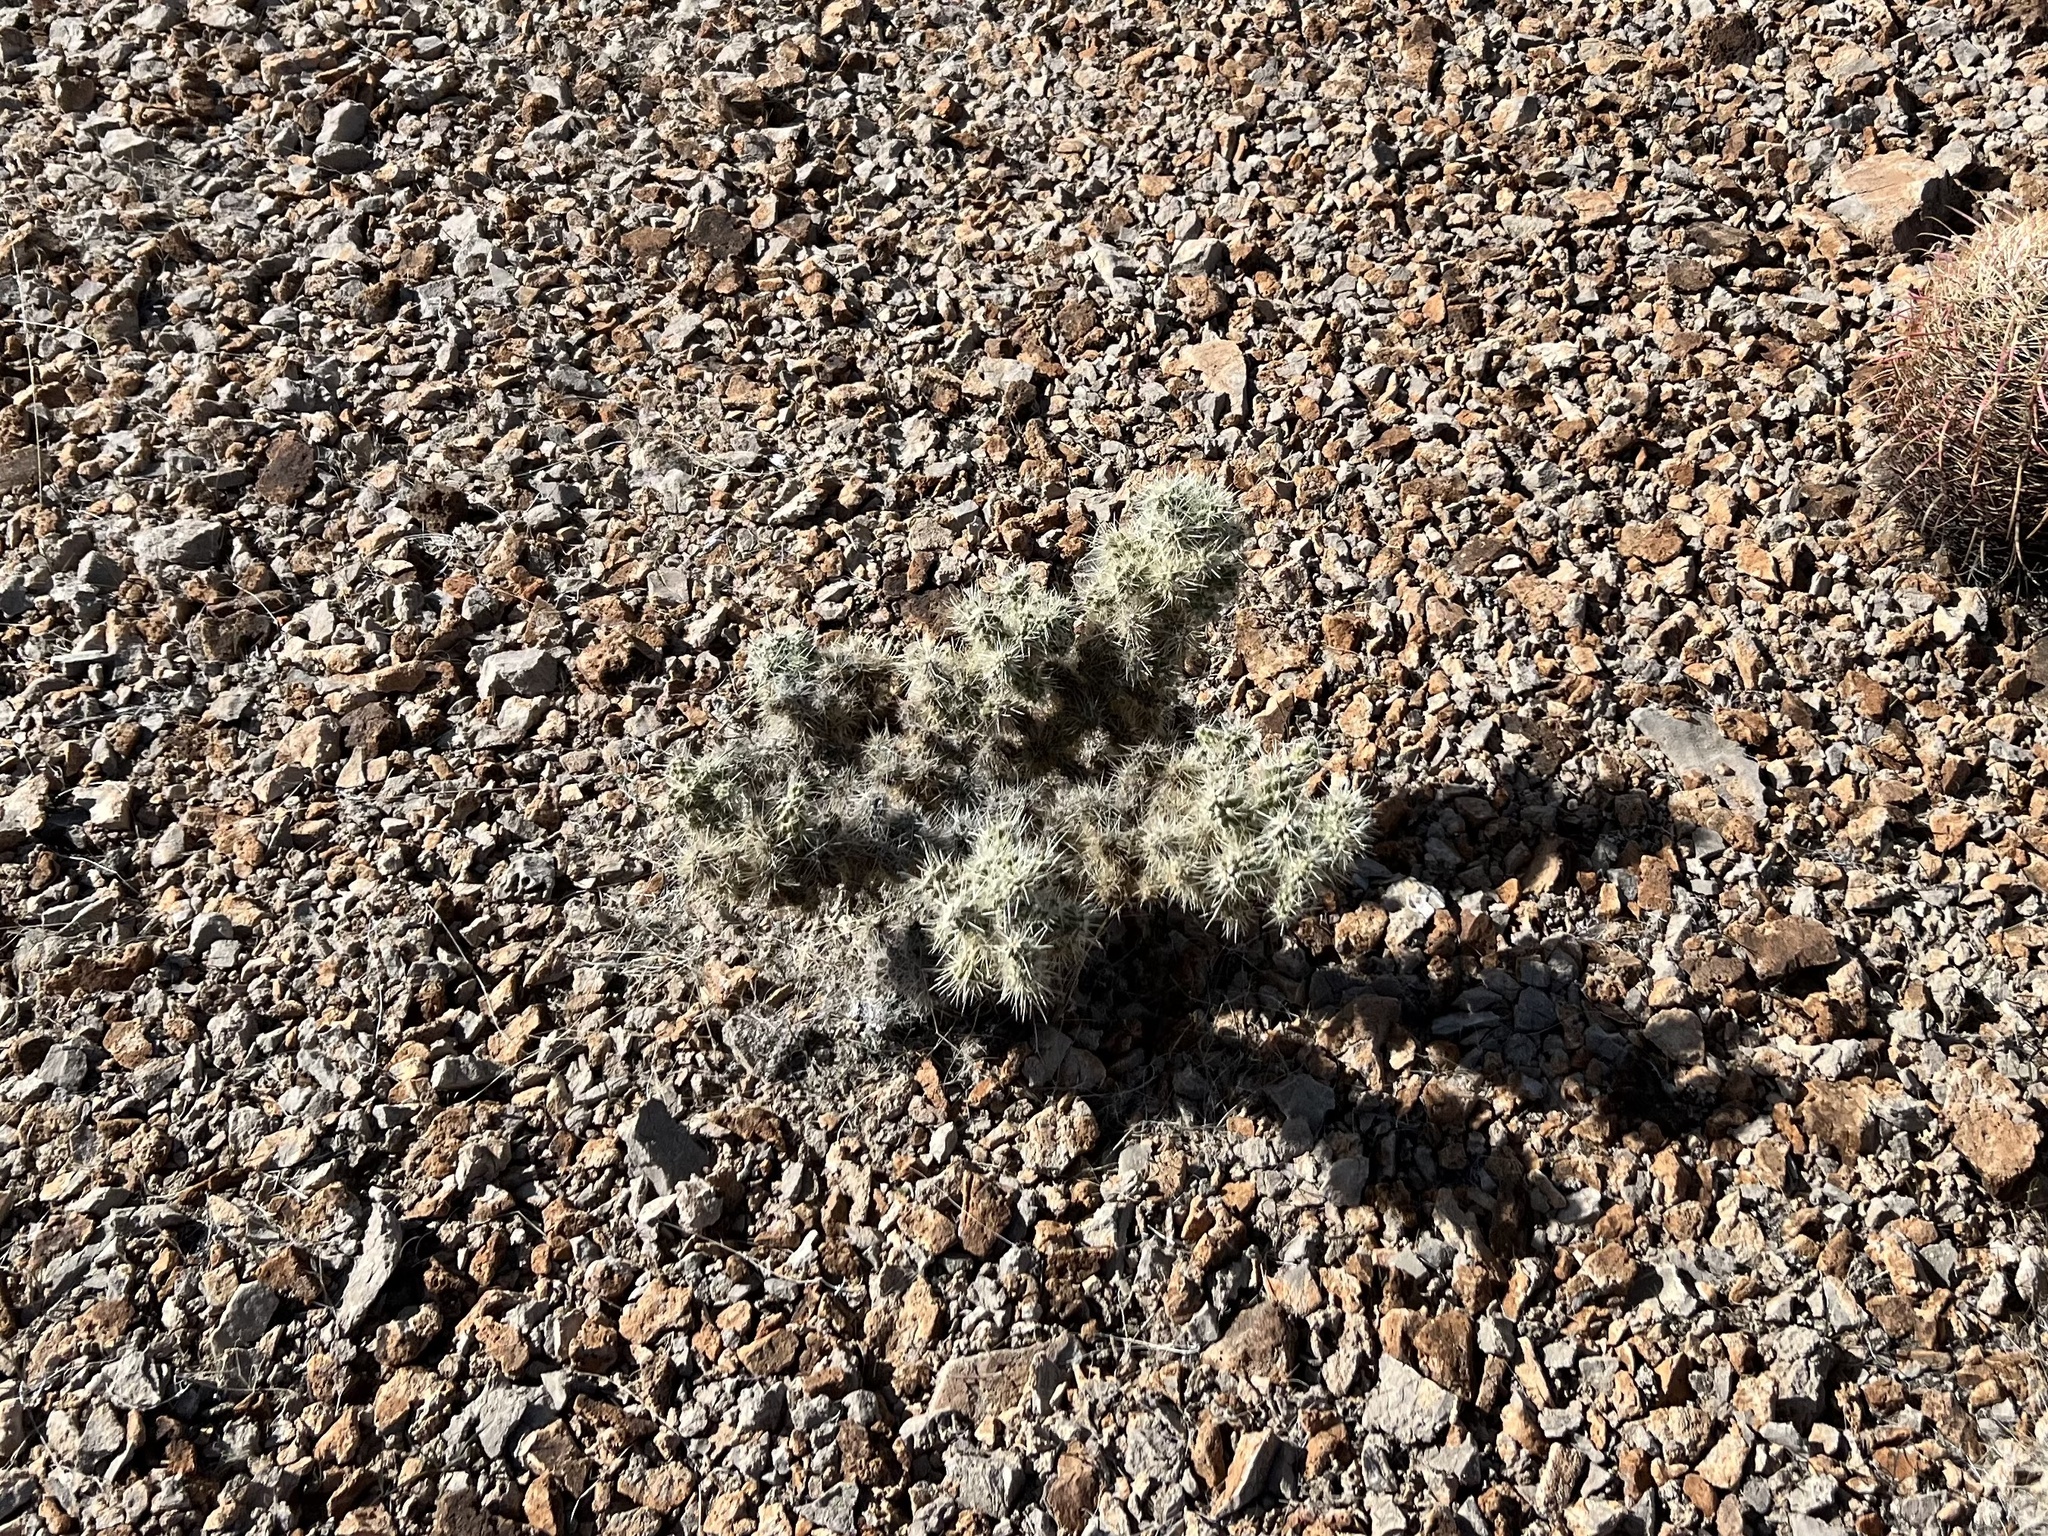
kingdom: Plantae
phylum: Tracheophyta
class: Magnoliopsida
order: Caryophyllales
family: Cactaceae
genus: Cylindropuntia
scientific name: Cylindropuntia multigeniculata
